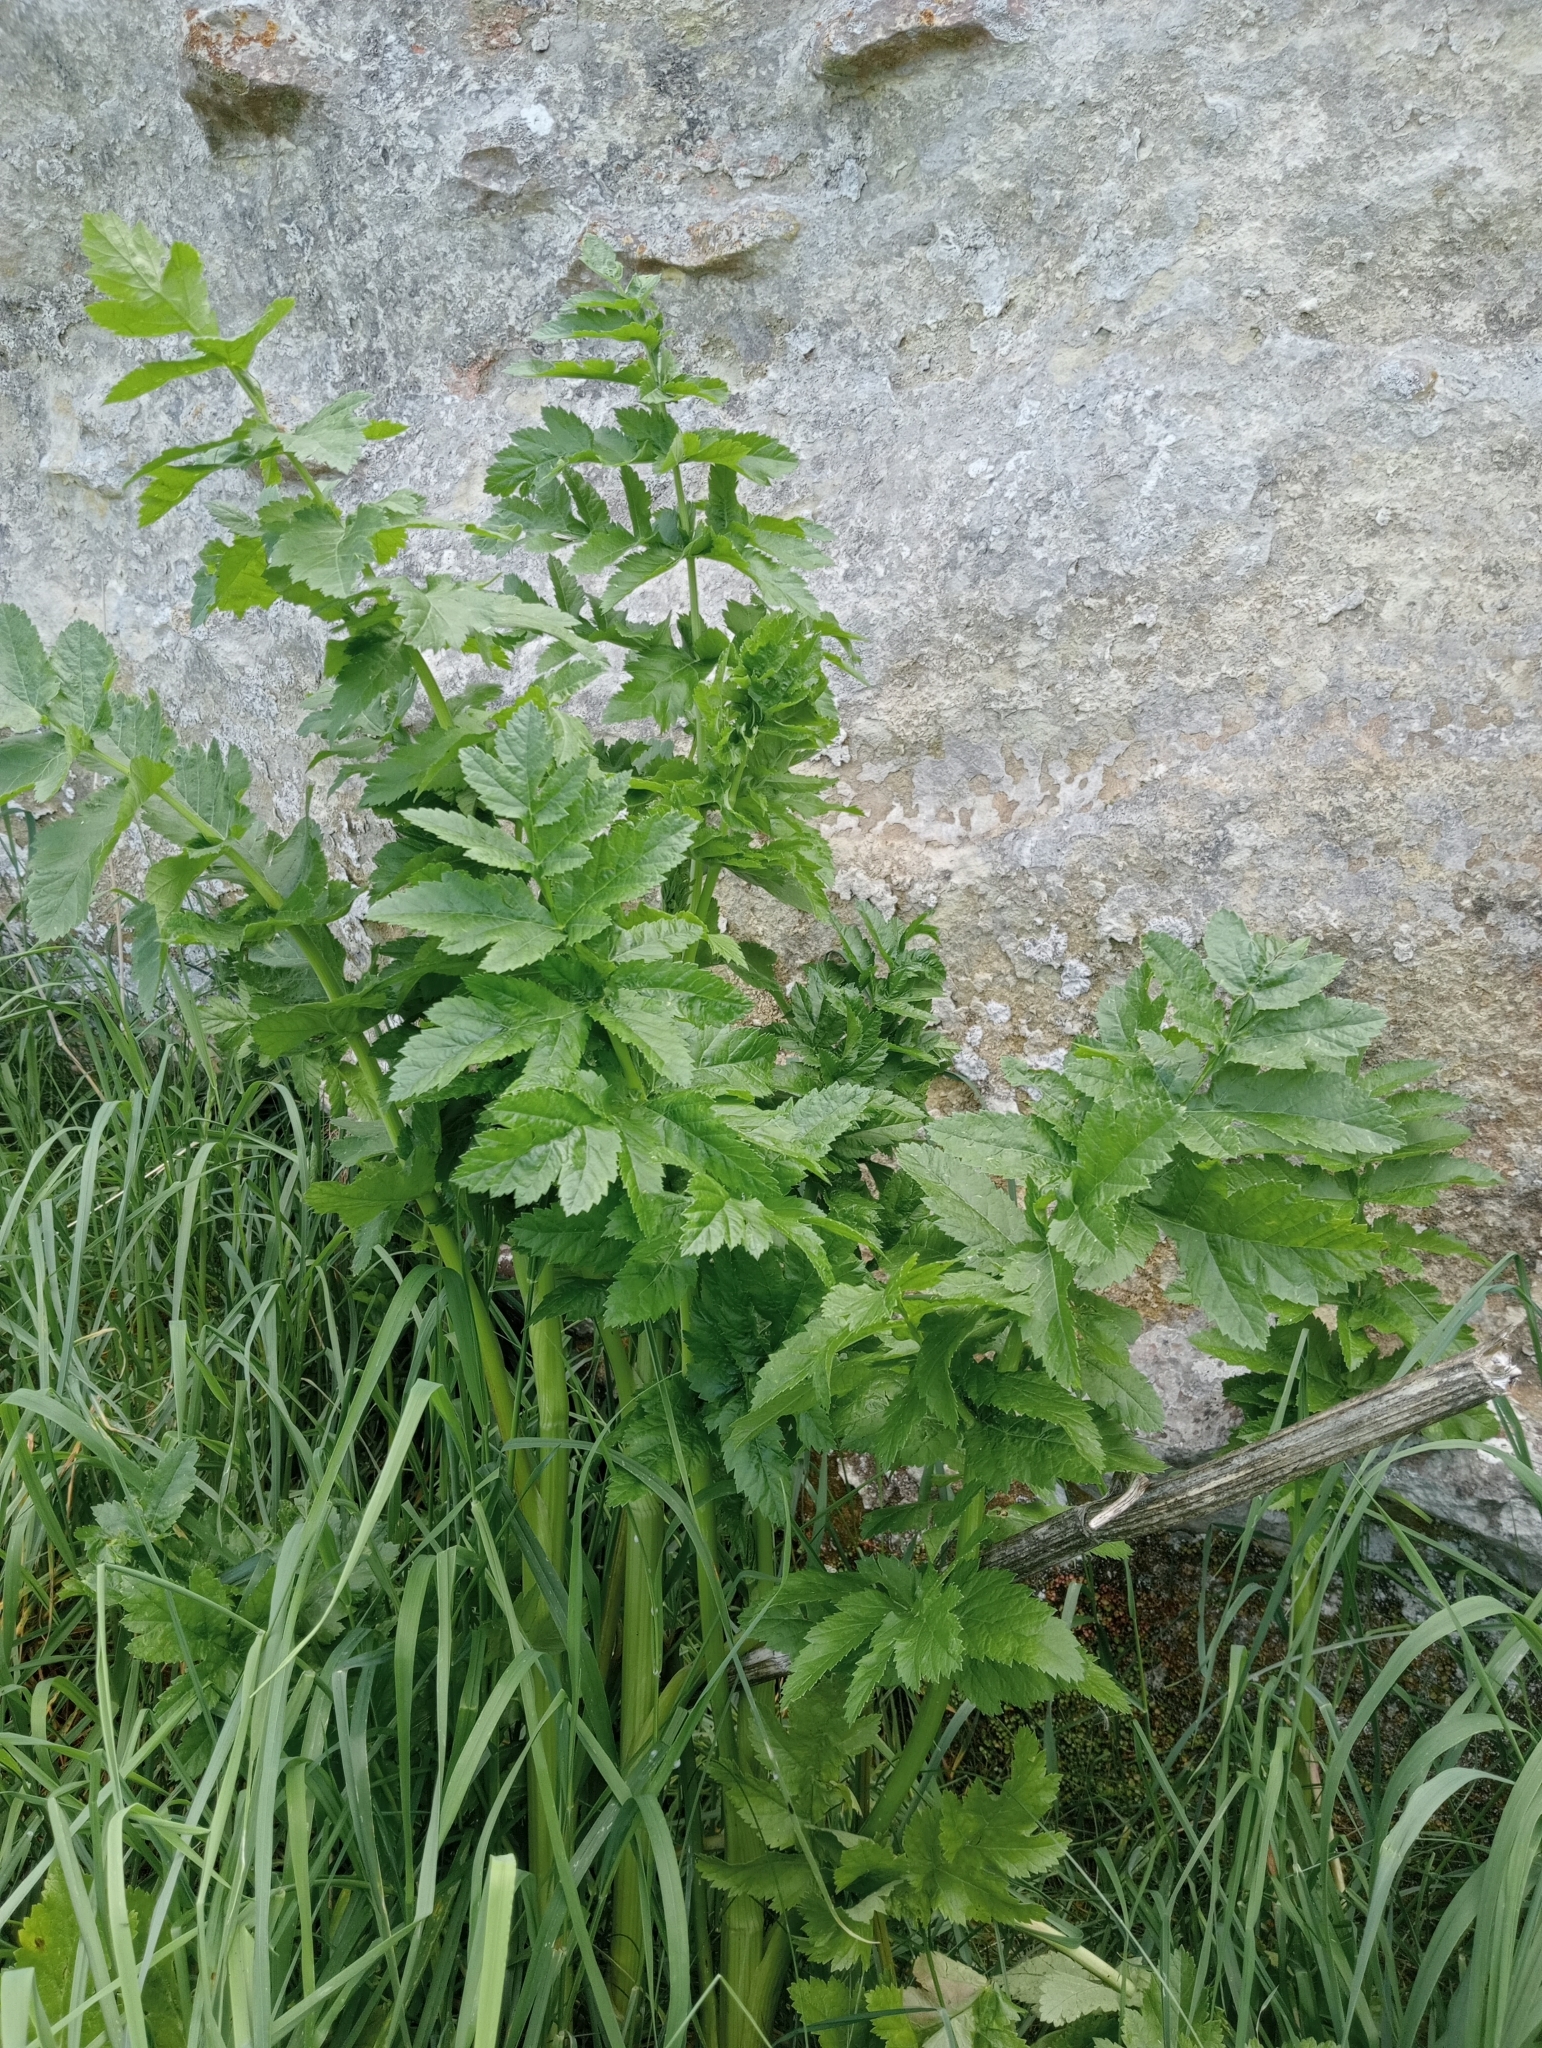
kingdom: Plantae
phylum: Tracheophyta
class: Magnoliopsida
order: Apiales
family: Apiaceae
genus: Pastinaca
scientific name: Pastinaca sativa
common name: Wild parsnip
